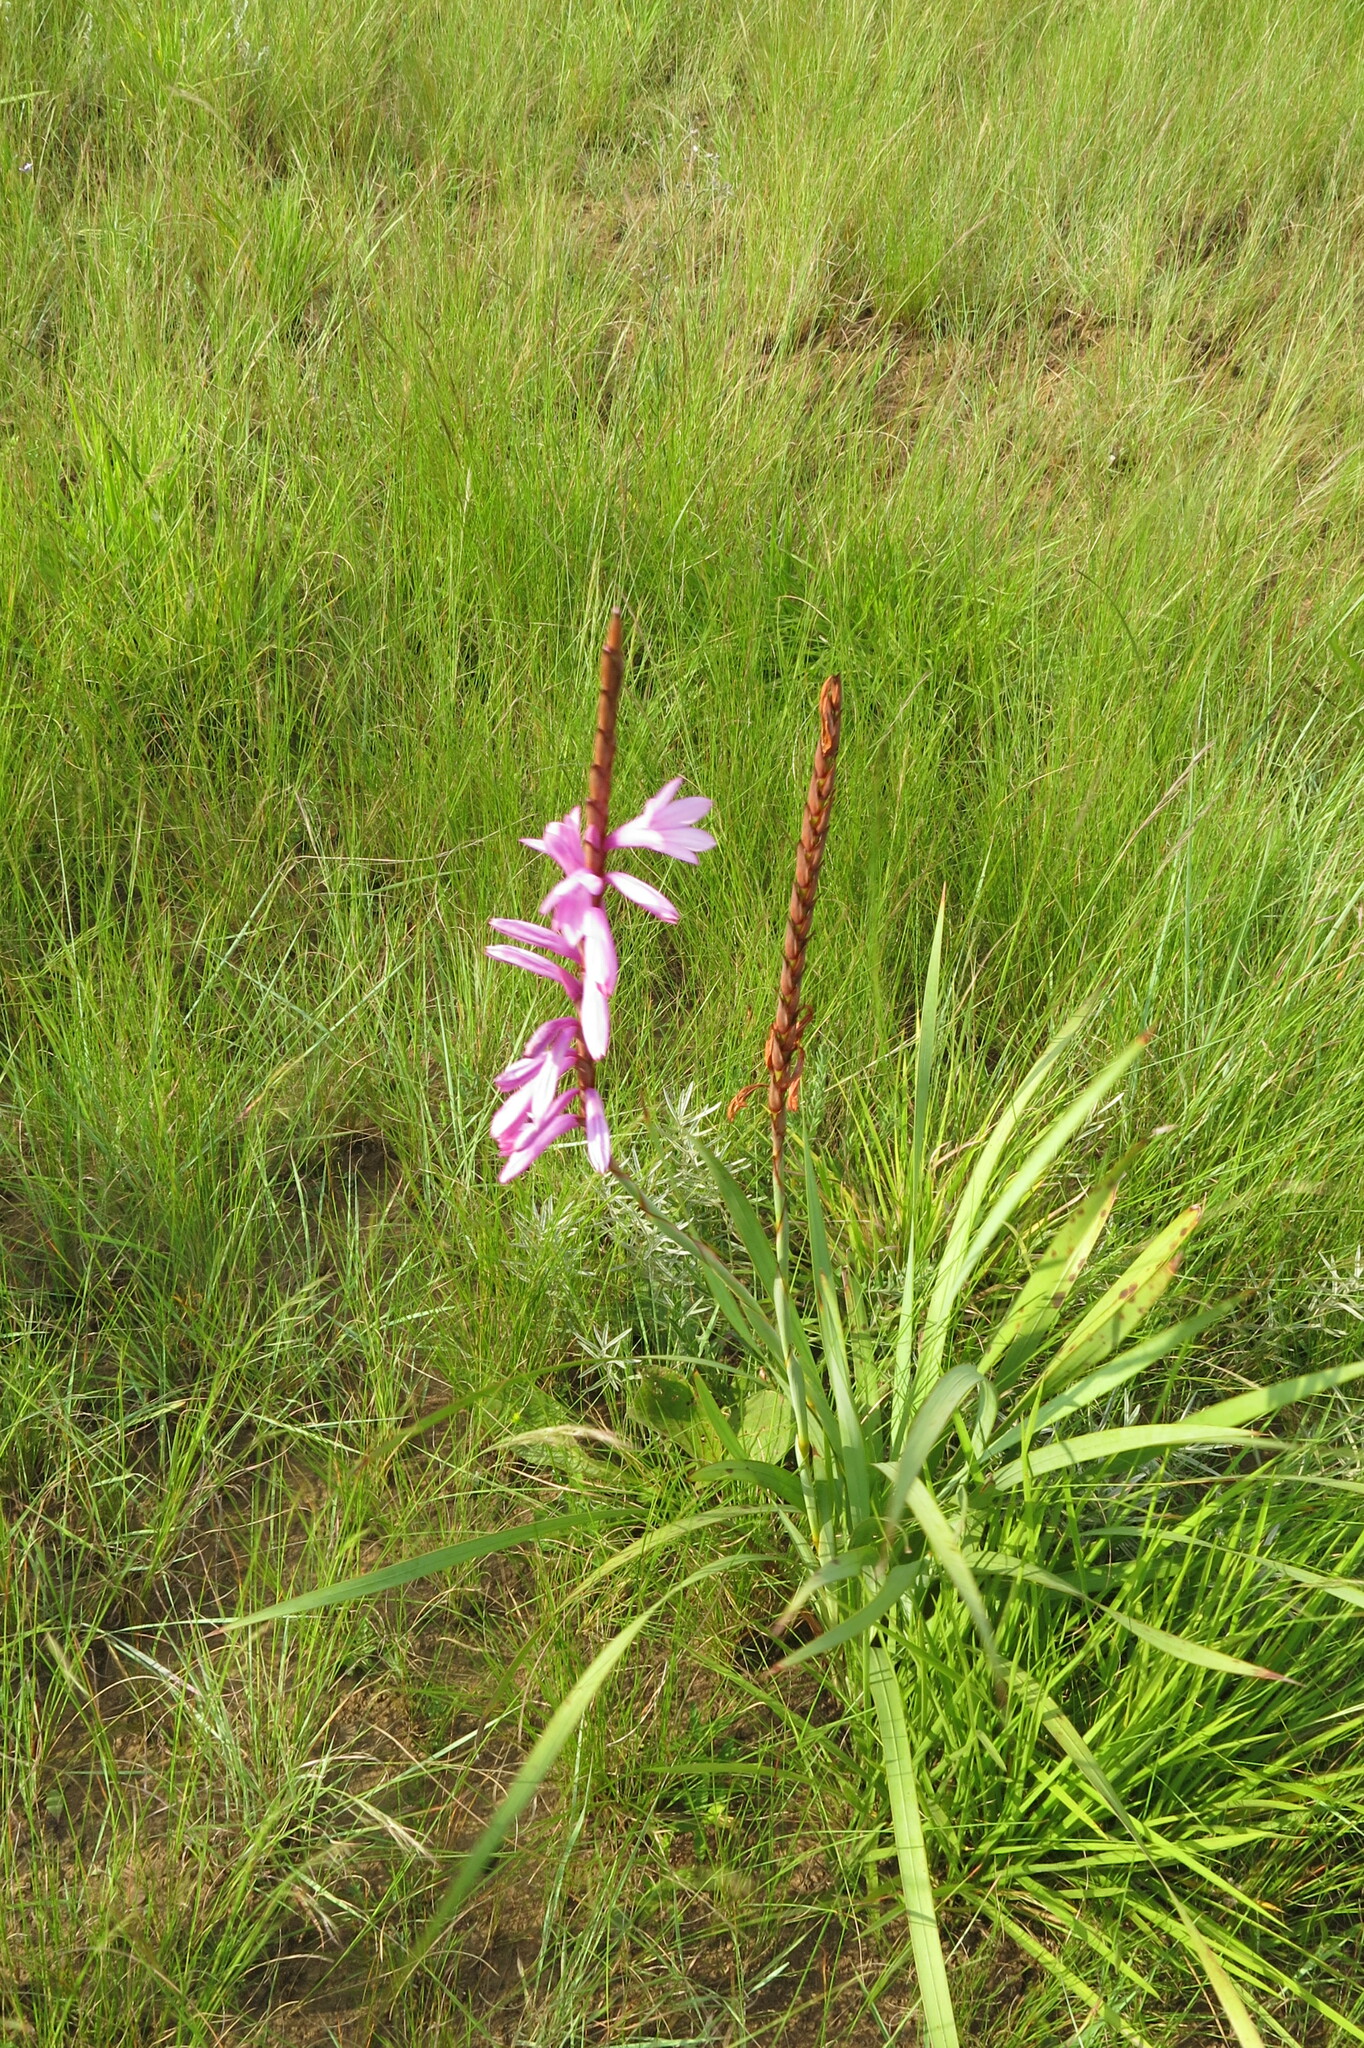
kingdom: Plantae
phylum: Tracheophyta
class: Liliopsida
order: Asparagales
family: Iridaceae
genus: Watsonia
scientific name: Watsonia densiflora
